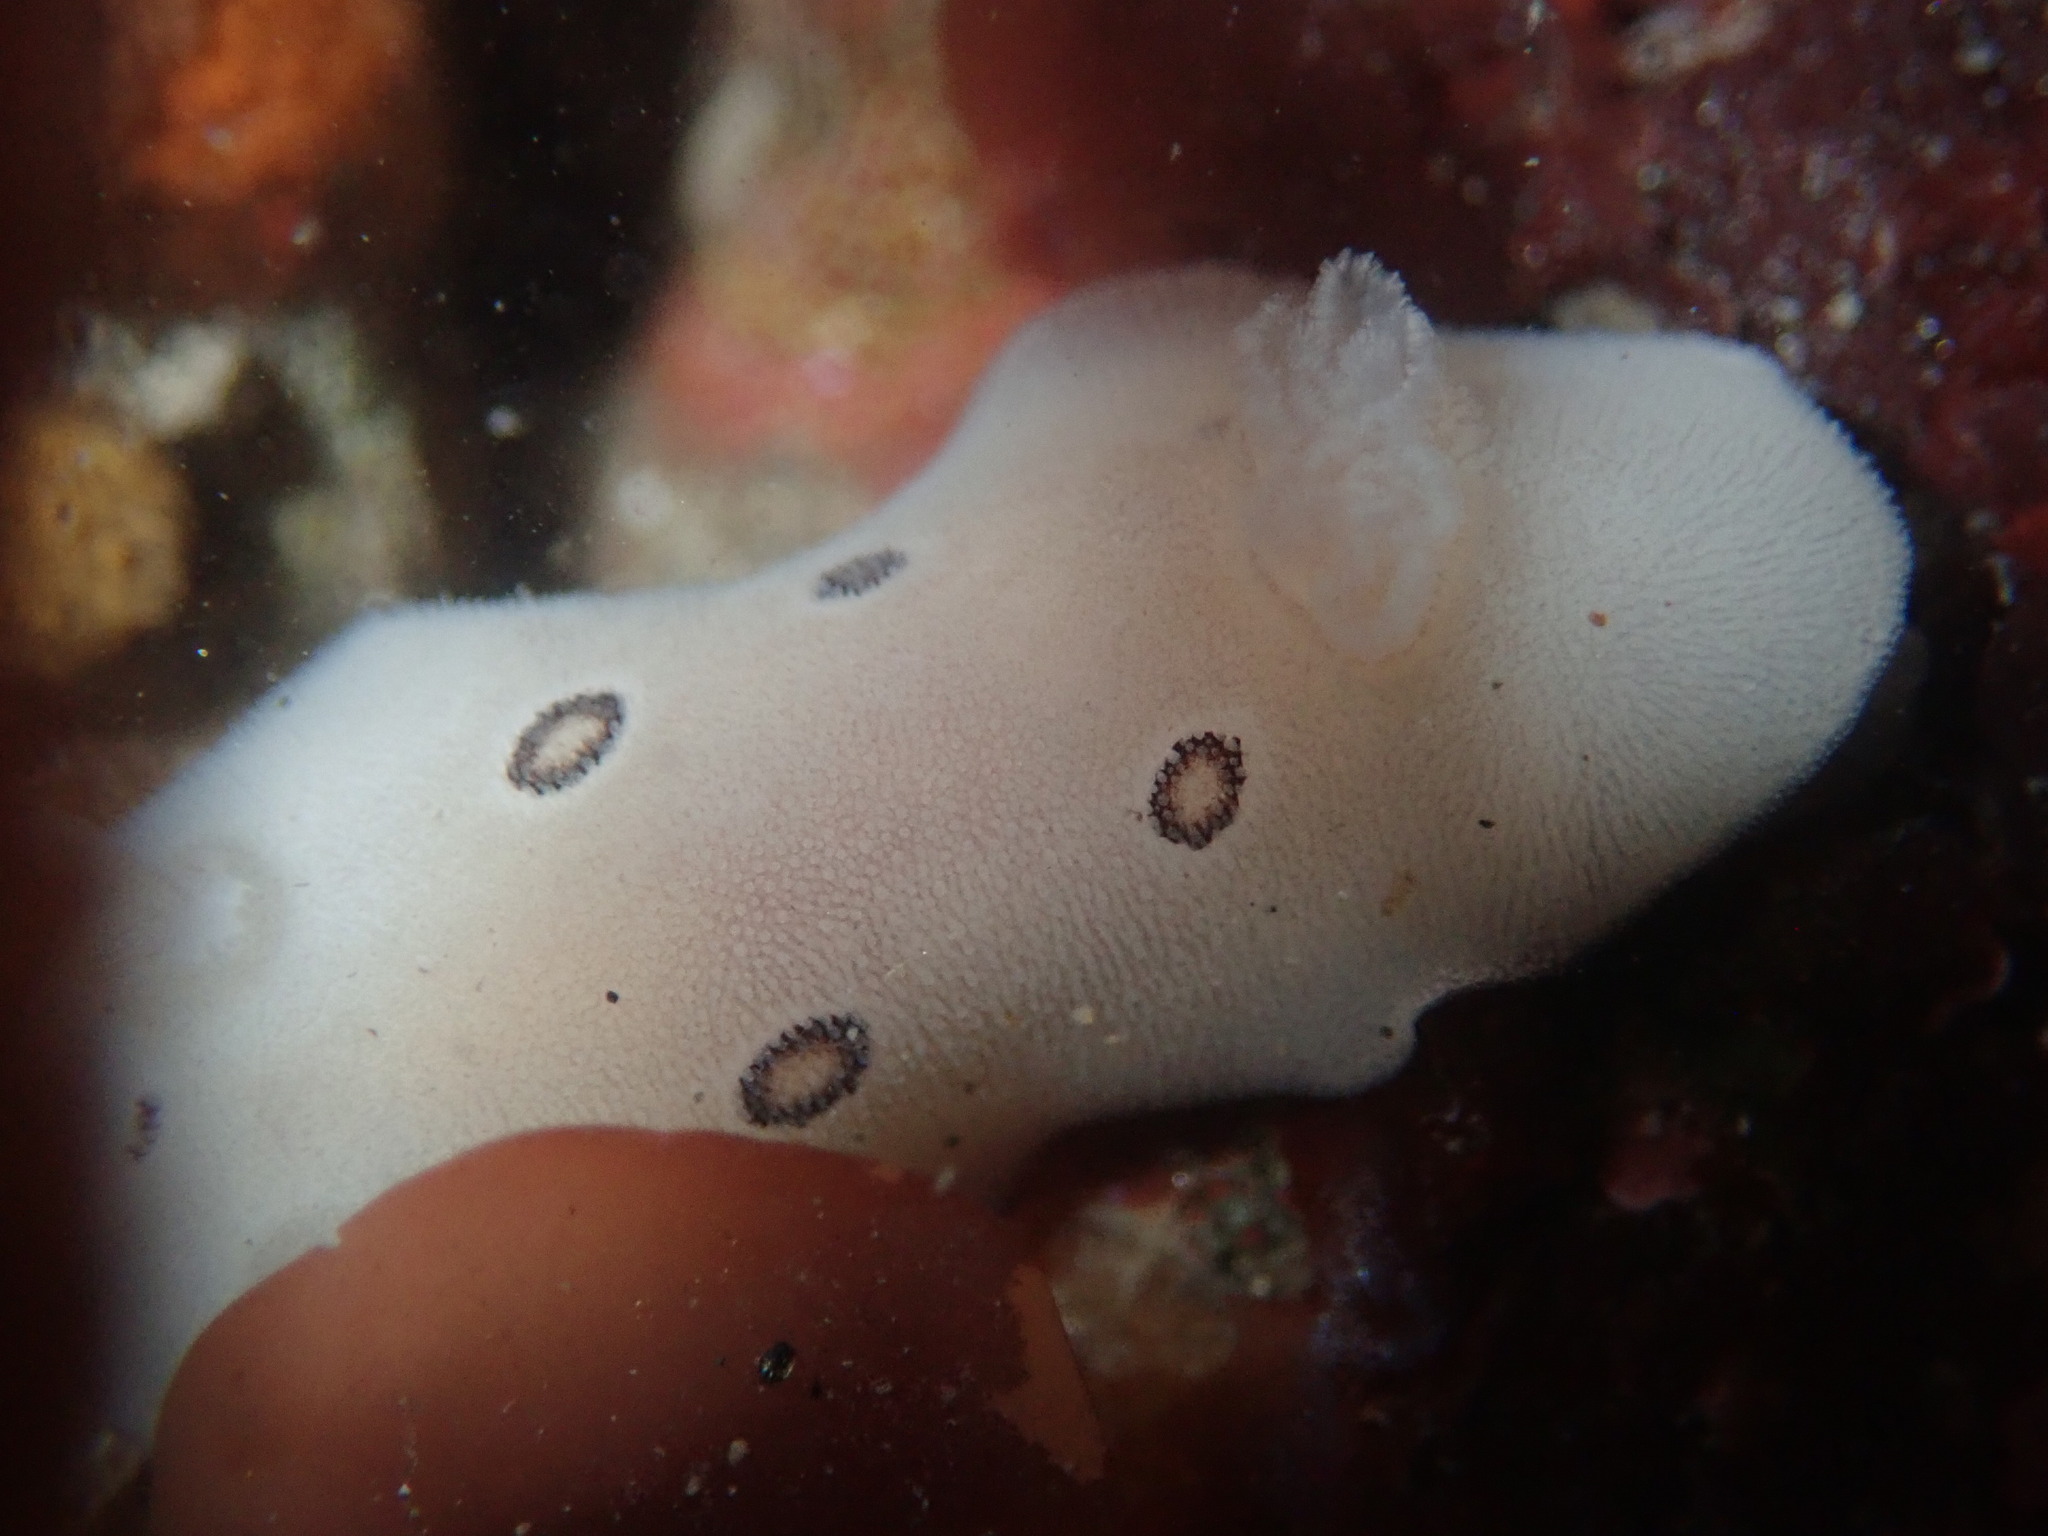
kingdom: Animalia
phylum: Mollusca
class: Gastropoda
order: Nudibranchia
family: Discodorididae
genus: Diaulula
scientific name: Diaulula sandiegensis
